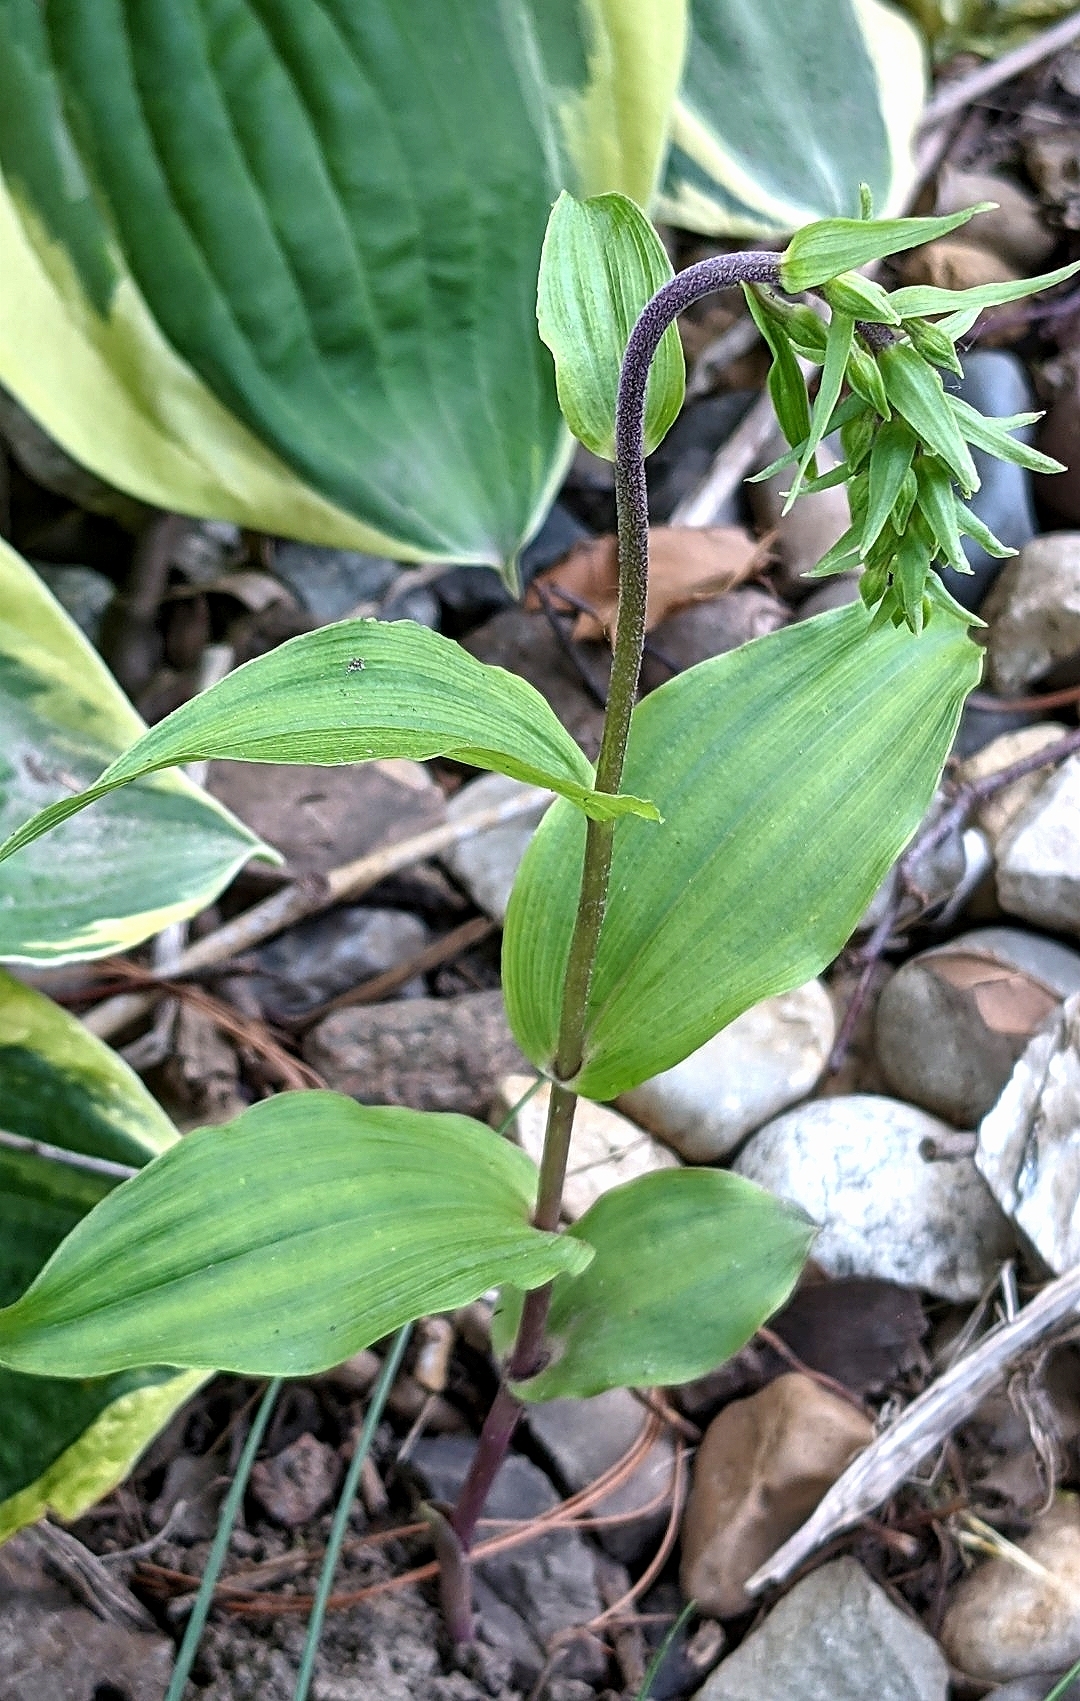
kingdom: Plantae
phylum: Tracheophyta
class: Liliopsida
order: Asparagales
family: Orchidaceae
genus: Epipactis
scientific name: Epipactis helleborine
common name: Broad-leaved helleborine
